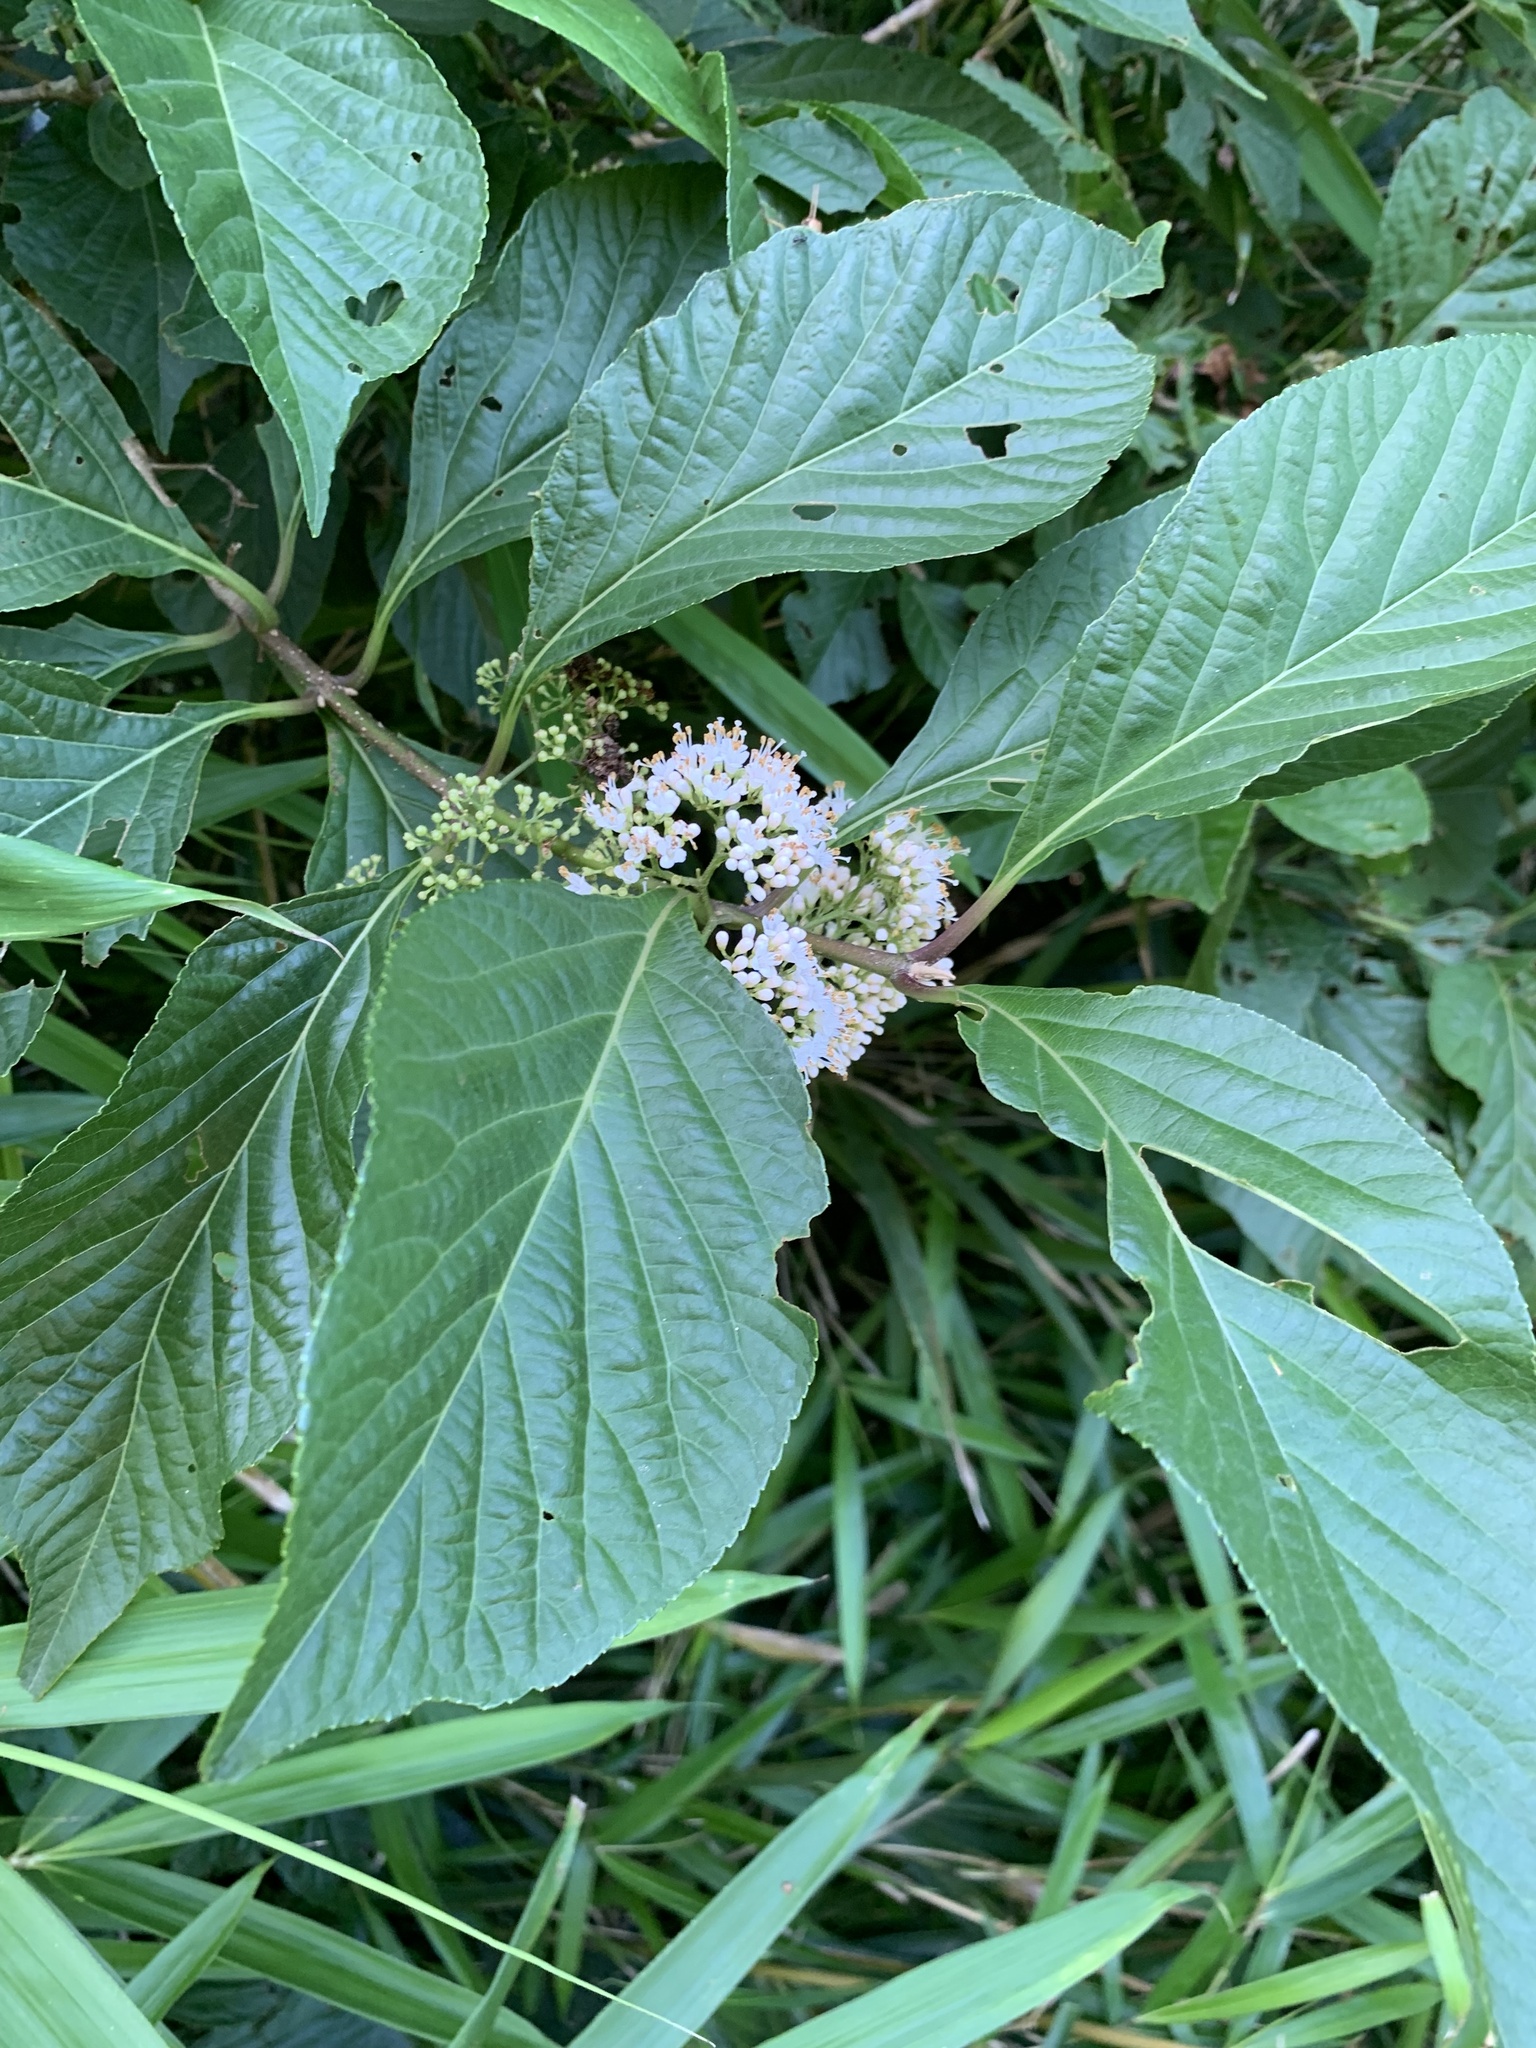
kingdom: Plantae
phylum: Tracheophyta
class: Magnoliopsida
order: Lamiales
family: Lamiaceae
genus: Callicarpa
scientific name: Callicarpa japonica
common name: Japanese beauty-berry
